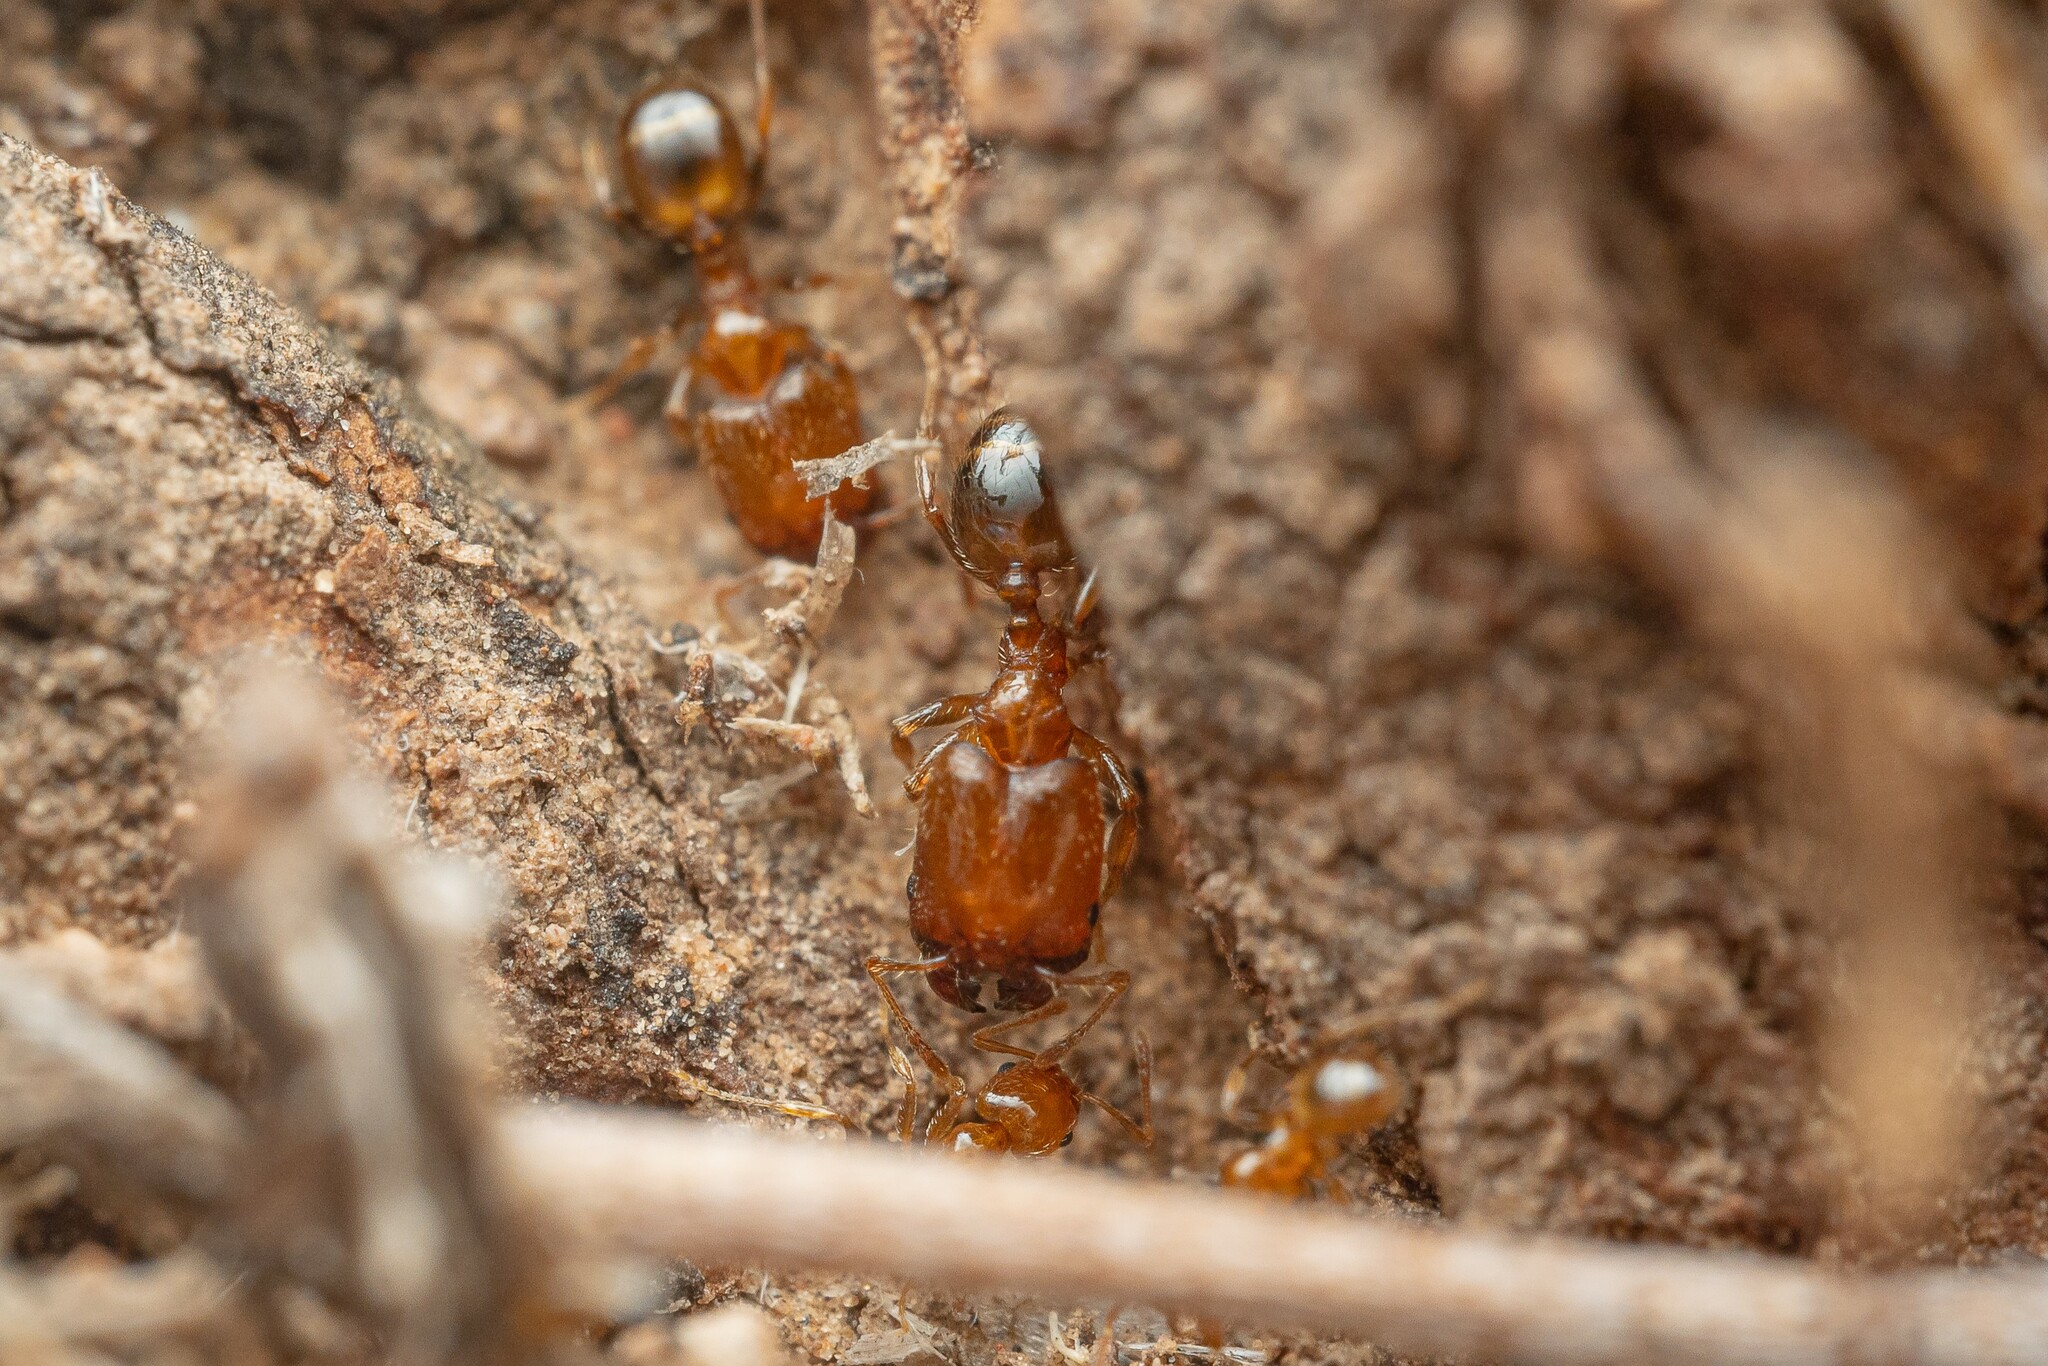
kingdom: Animalia
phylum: Arthropoda
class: Insecta
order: Hymenoptera
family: Formicidae
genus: Pheidole
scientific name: Pheidole
